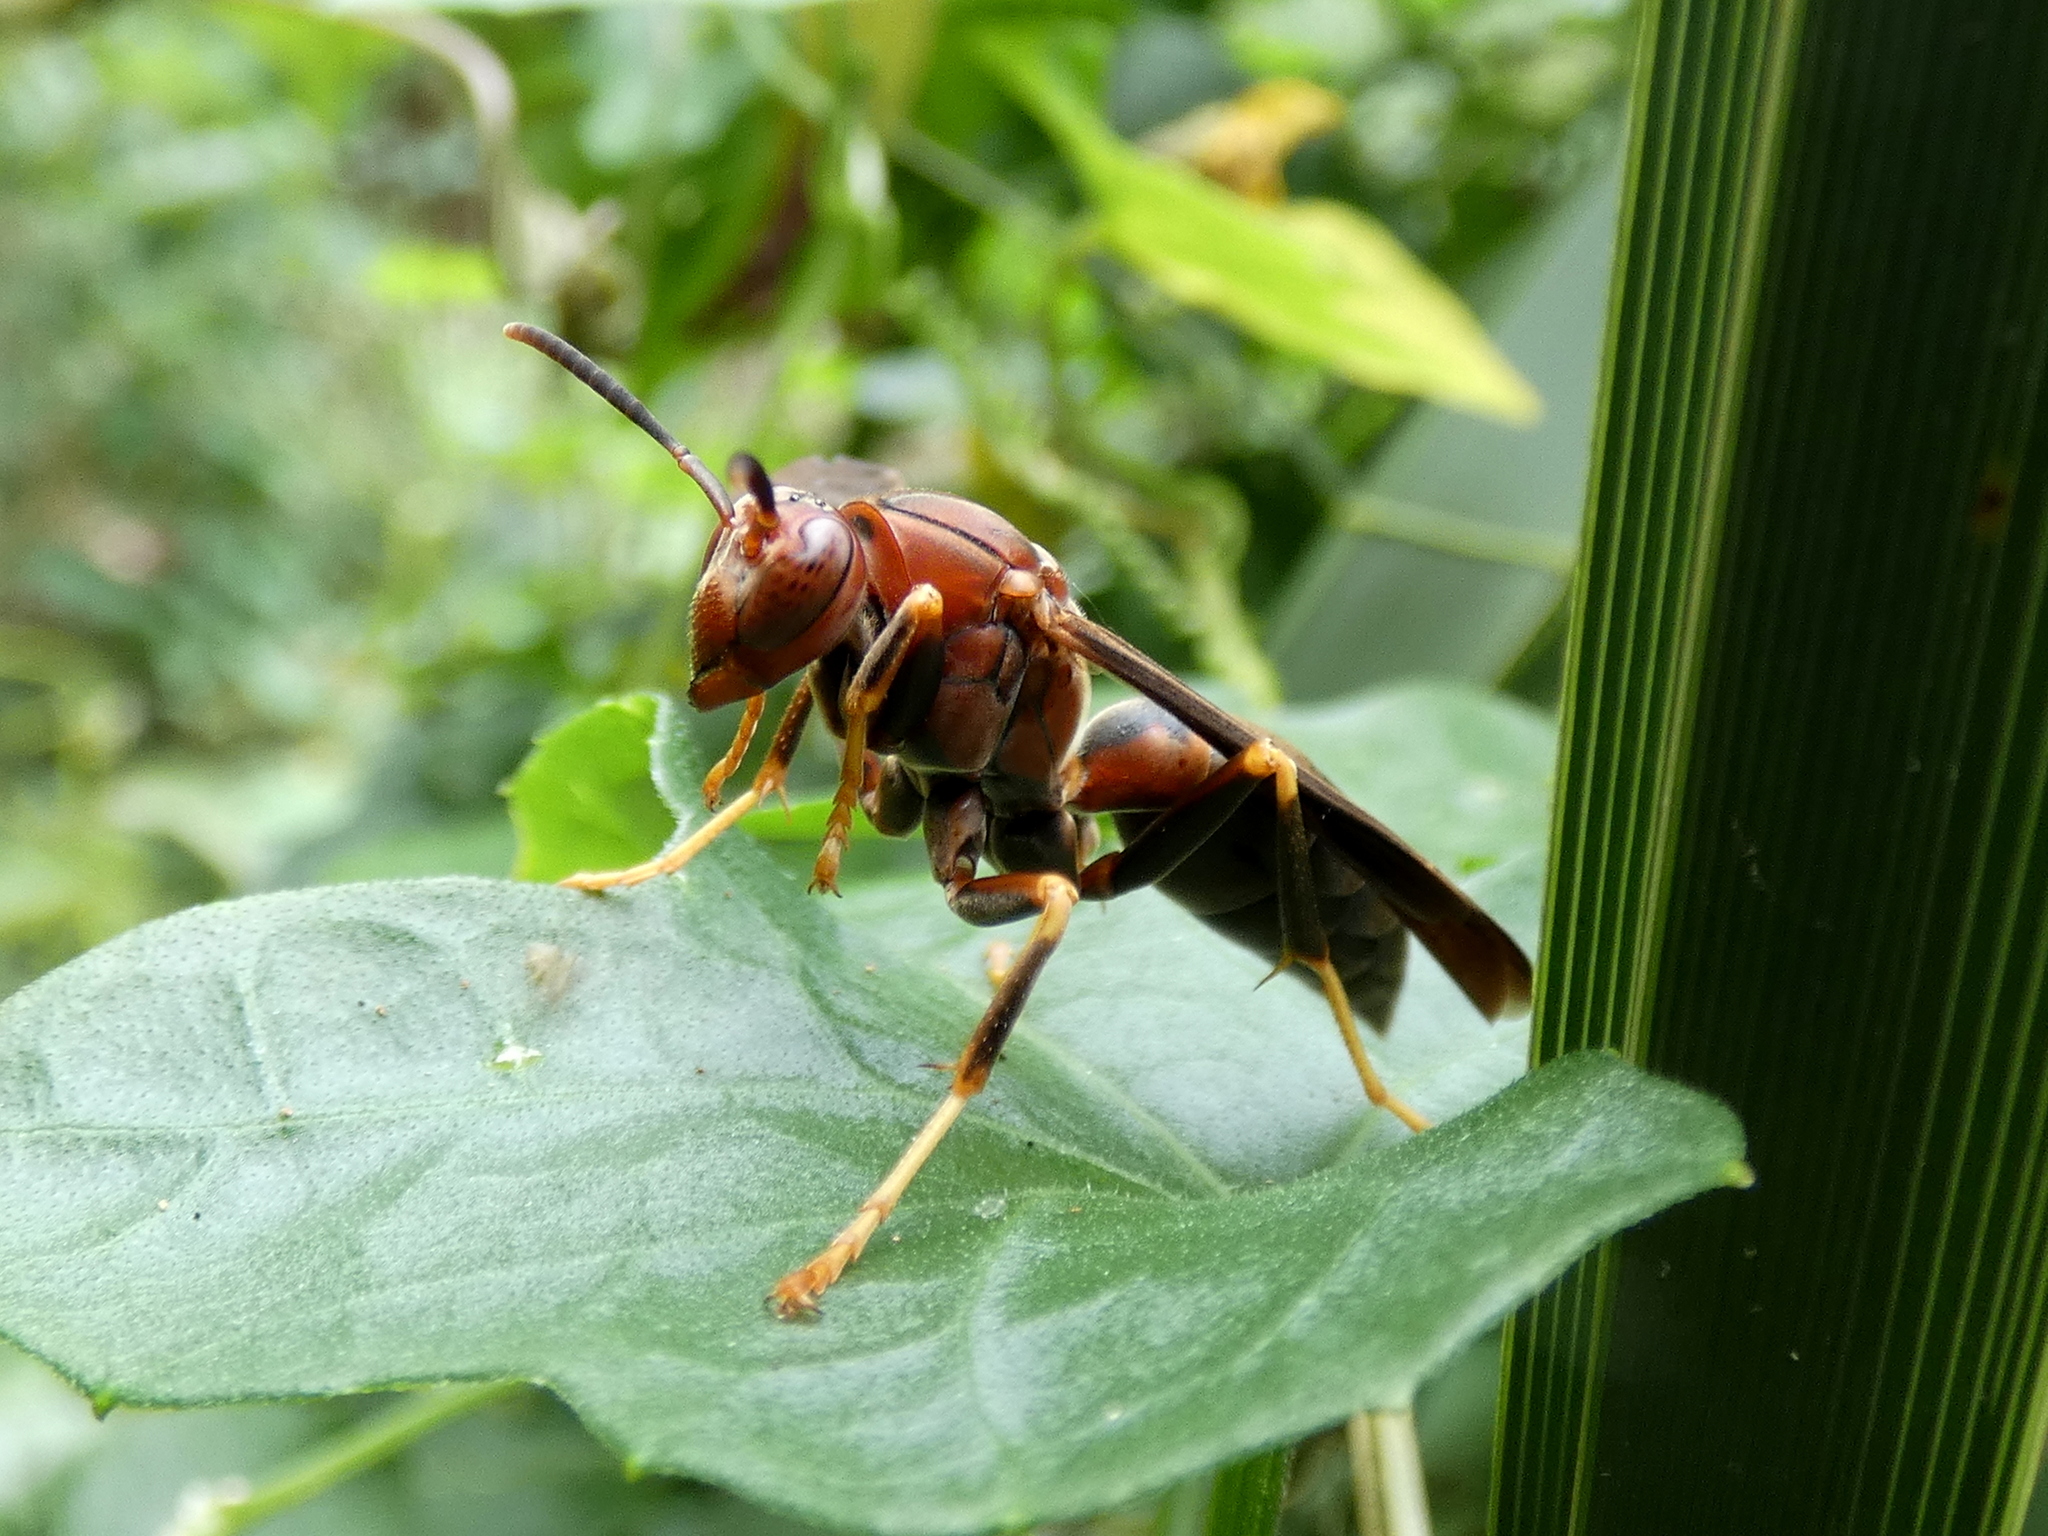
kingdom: Animalia
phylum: Arthropoda
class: Insecta
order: Hymenoptera
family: Eumenidae
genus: Polistes
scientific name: Polistes metricus
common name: Metric paper wasp
